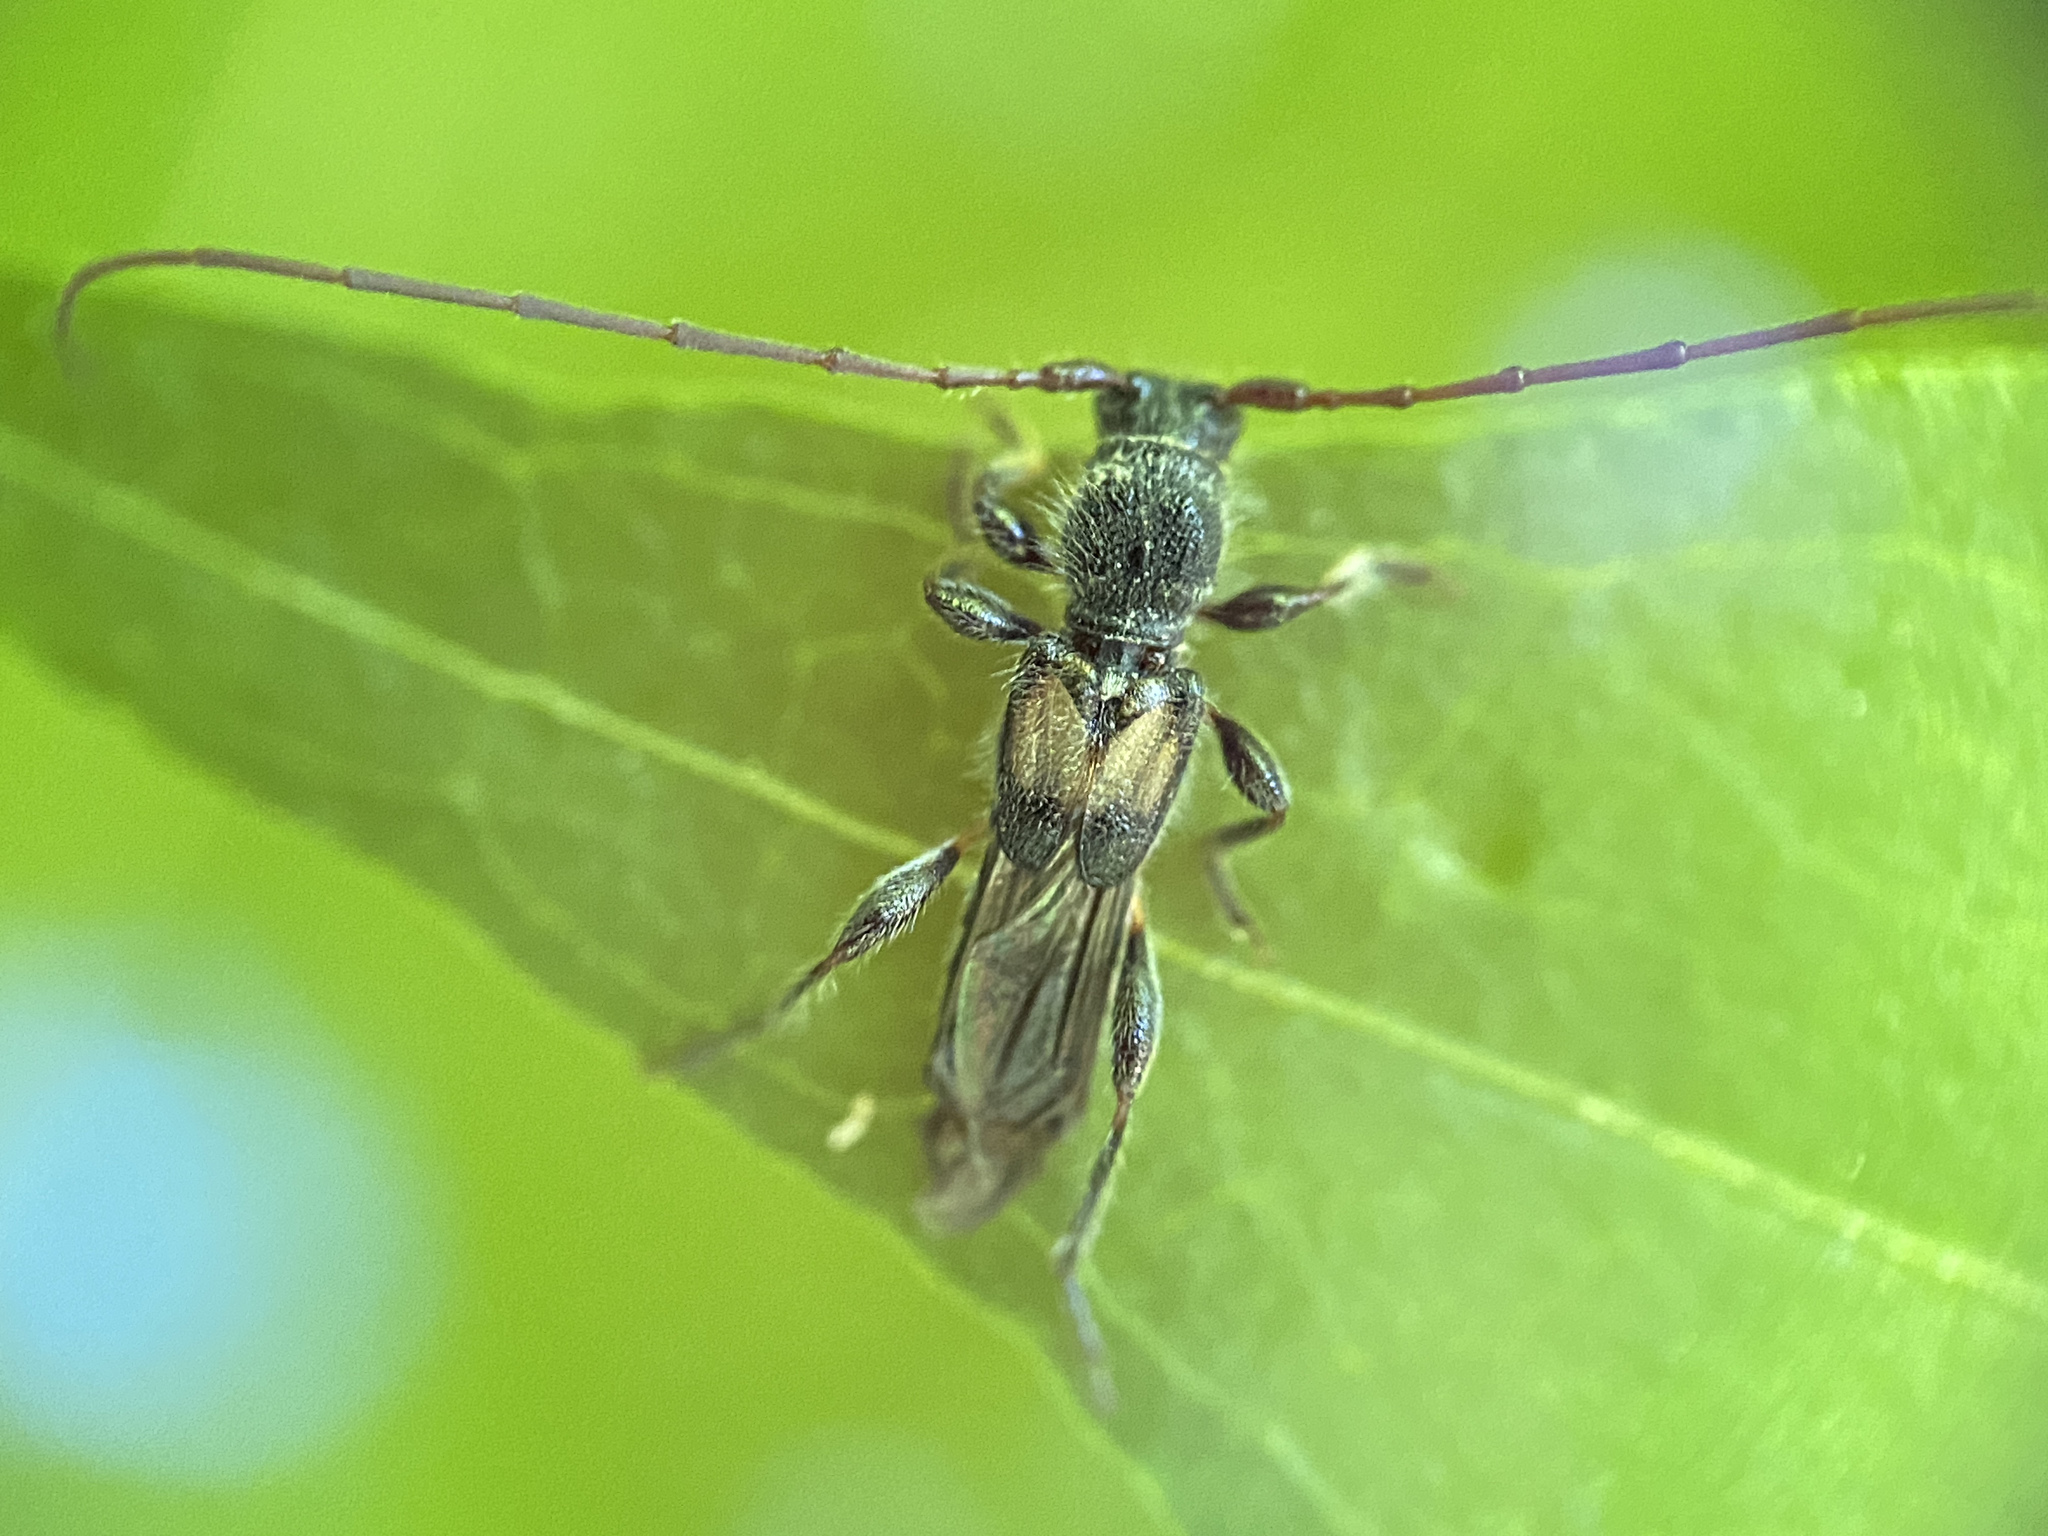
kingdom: Animalia
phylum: Arthropoda
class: Insecta
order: Coleoptera
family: Cerambycidae
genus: Molorchus
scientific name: Molorchus bimaculatus
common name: Bimaculate longhorn beetle
